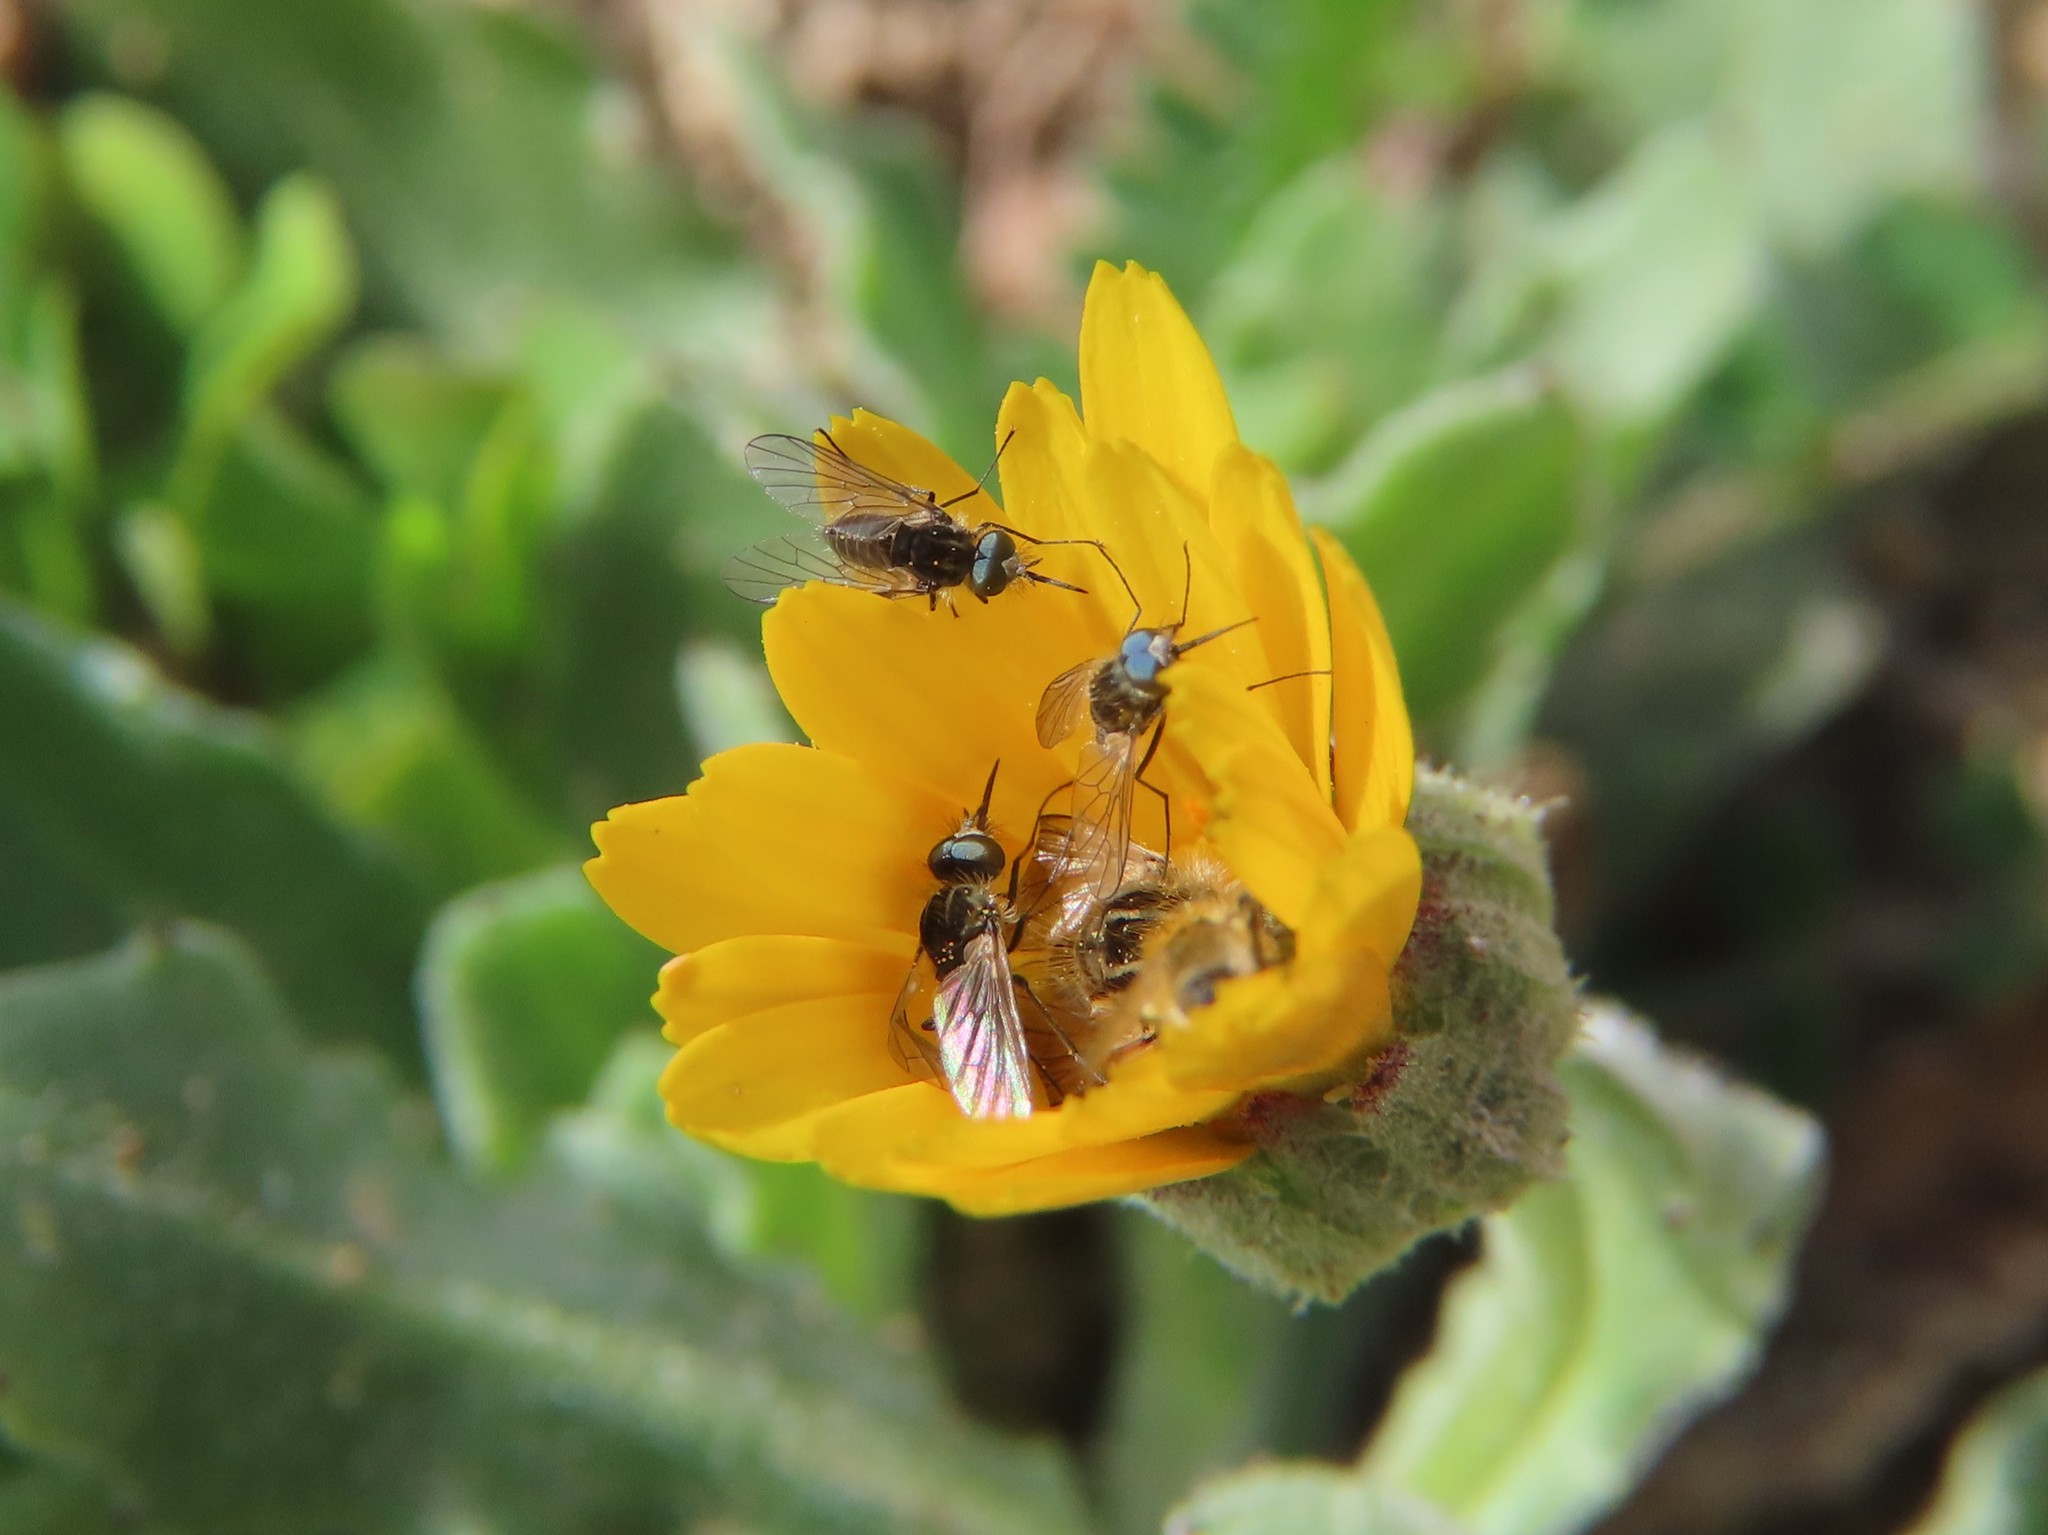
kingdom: Animalia
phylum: Arthropoda
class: Insecta
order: Diptera
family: Bombyliidae
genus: Protypusia
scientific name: Protypusia grata
